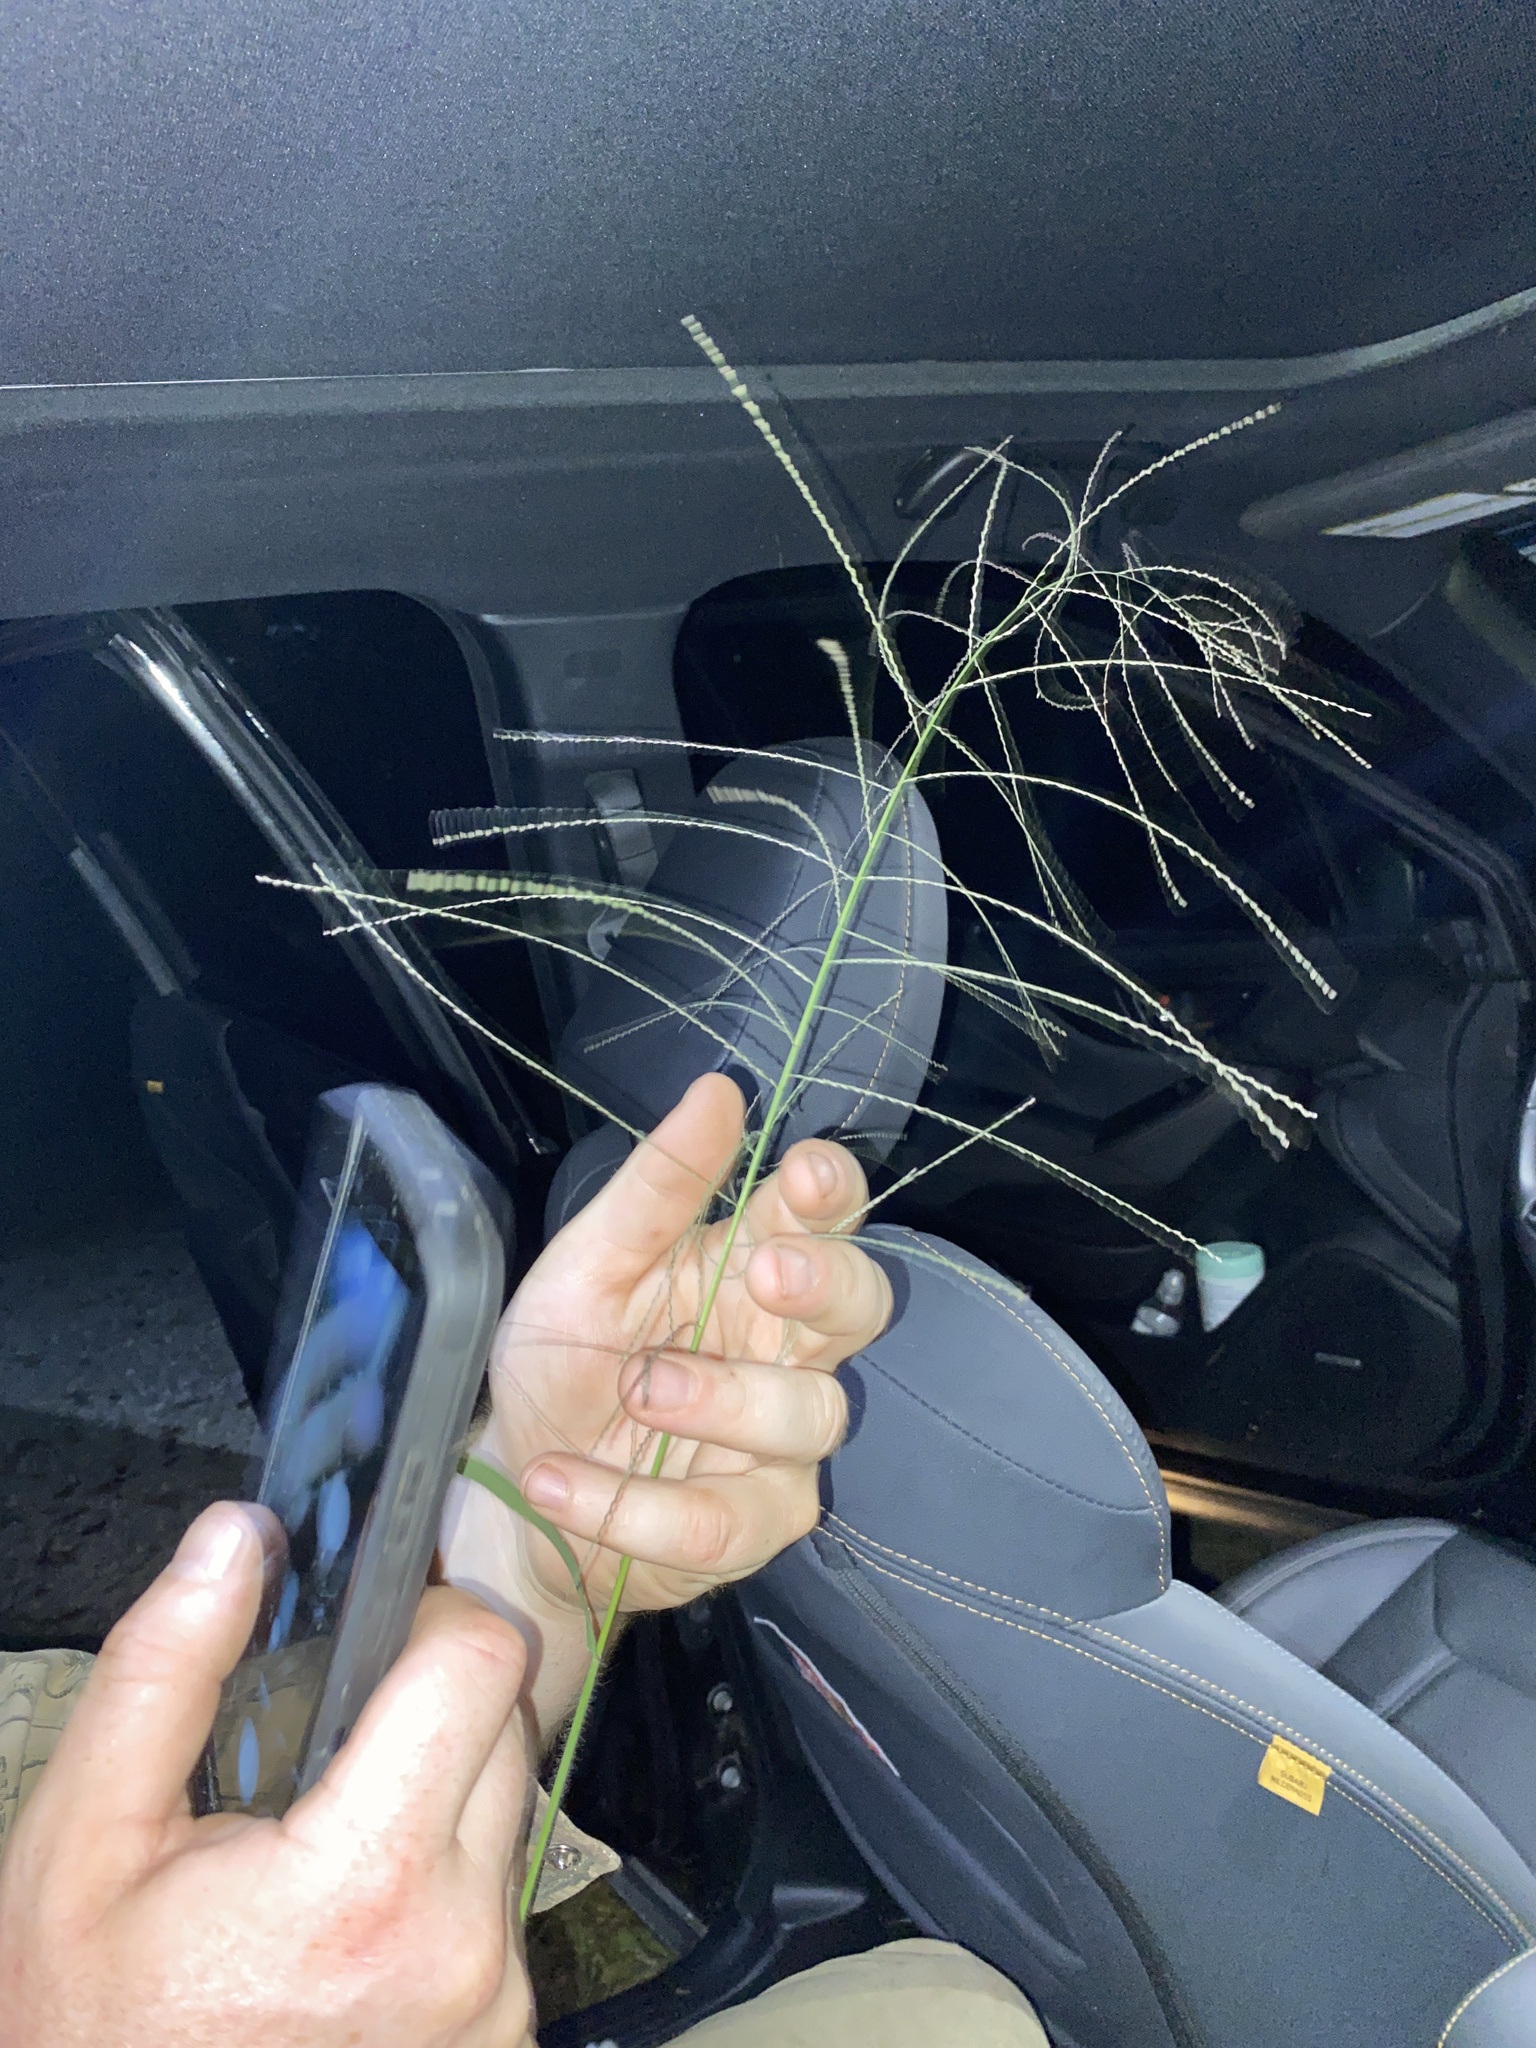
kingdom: Plantae
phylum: Tracheophyta
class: Liliopsida
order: Poales
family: Poaceae
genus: Diplachne
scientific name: Diplachne fusca
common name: Brown beetle grass
